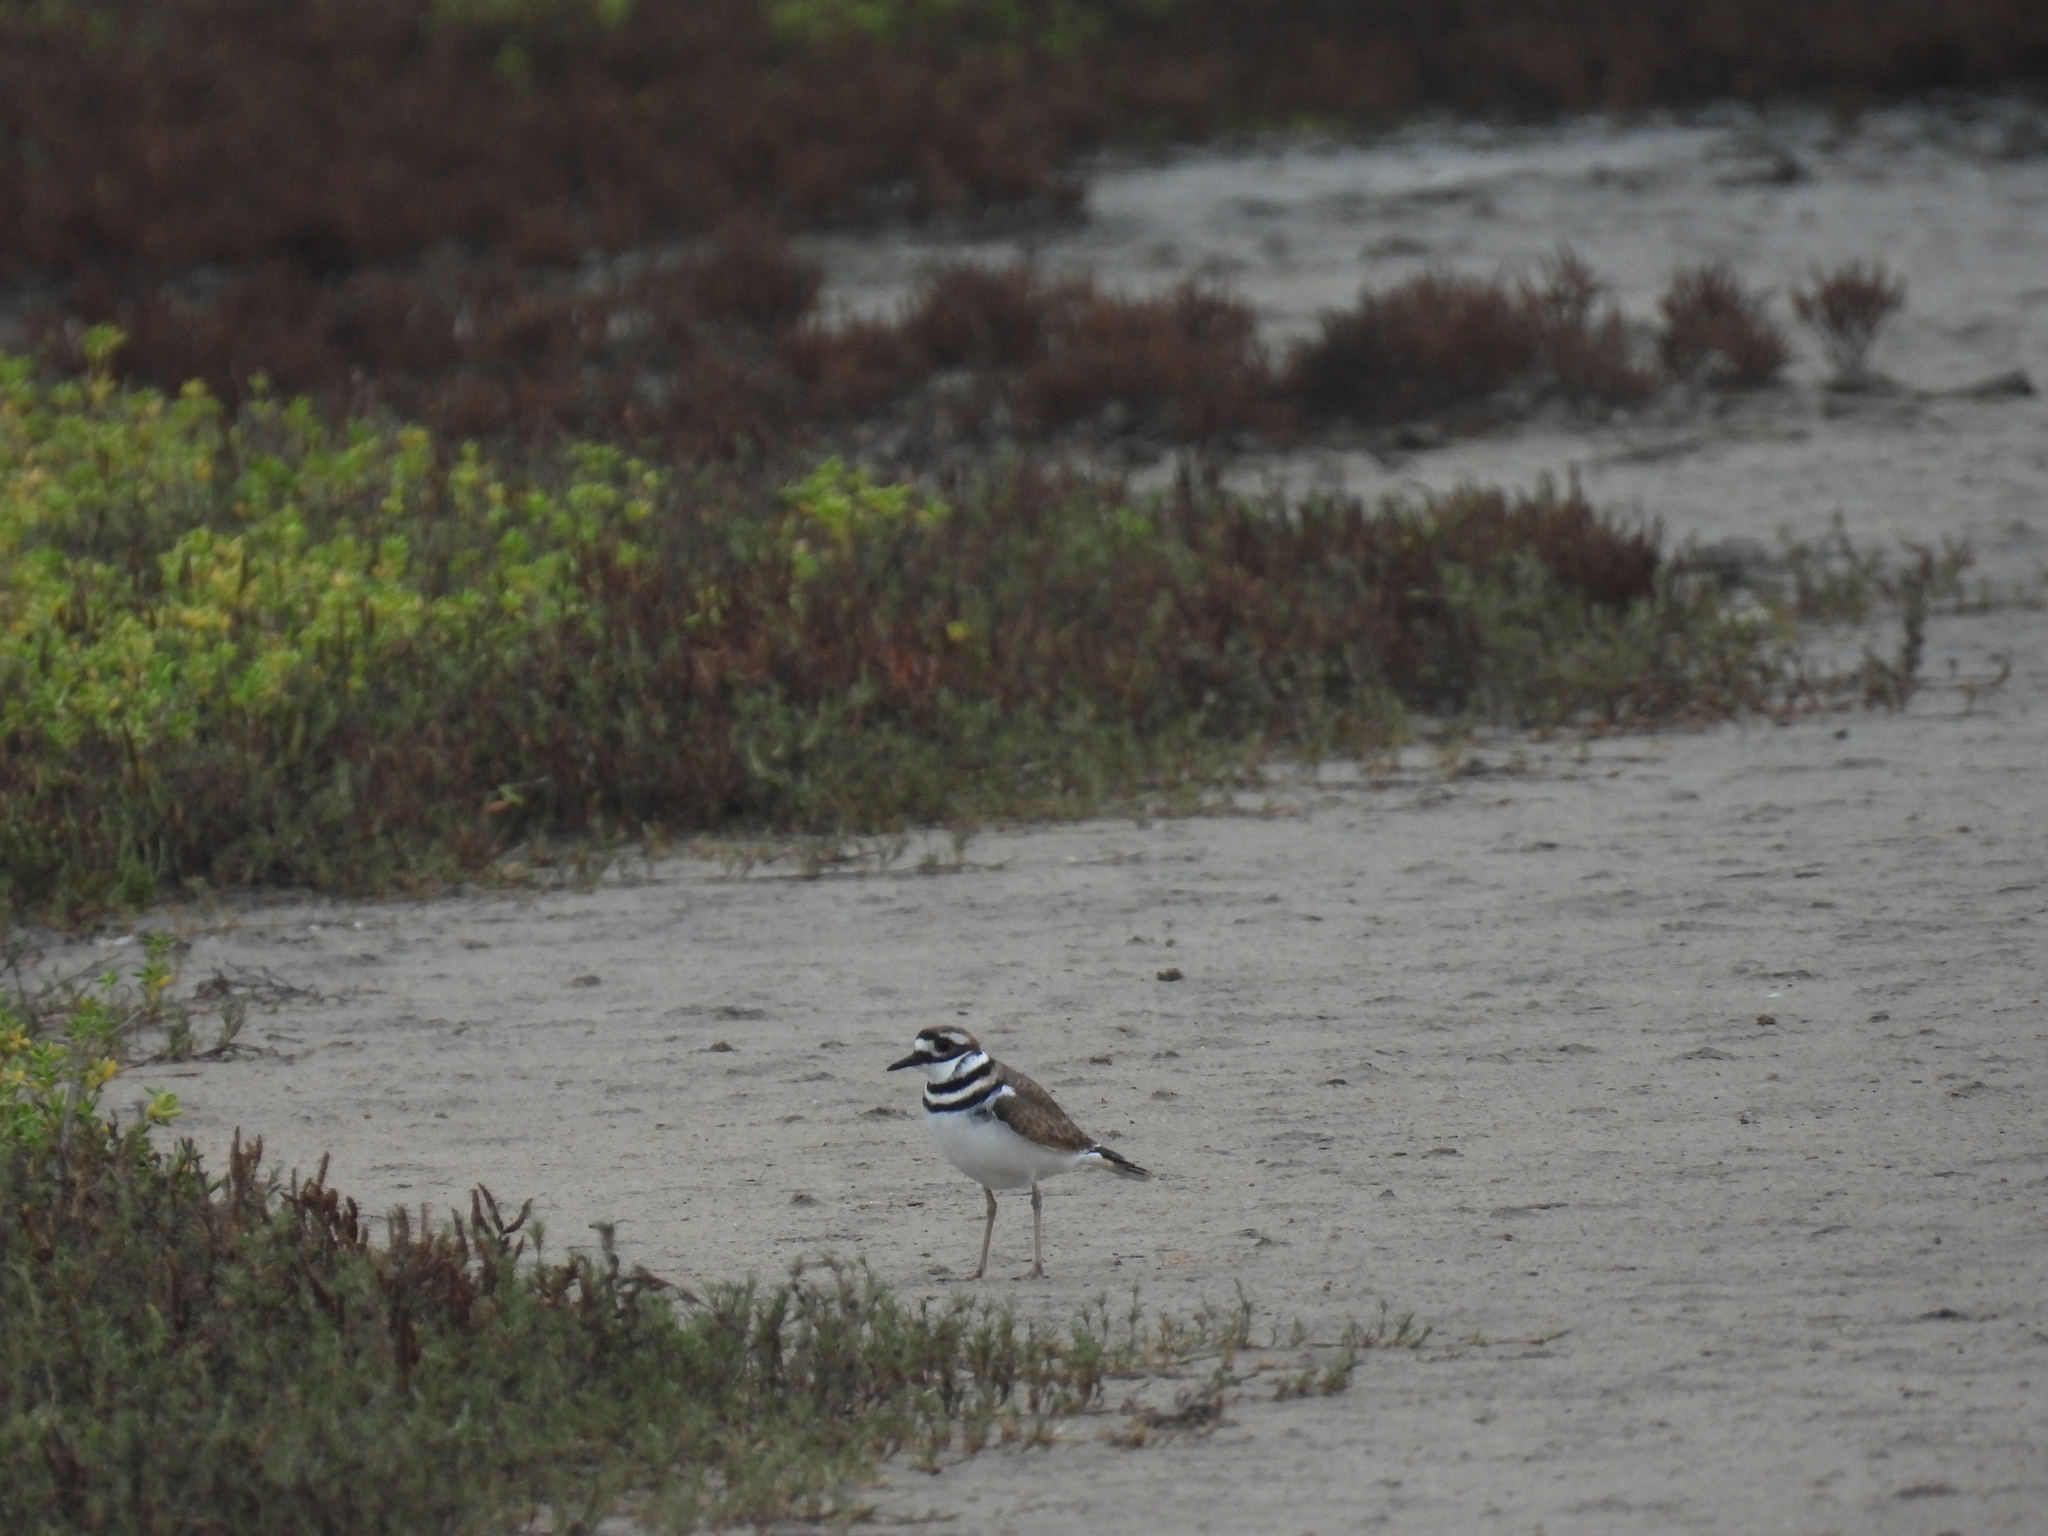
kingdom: Animalia
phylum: Chordata
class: Aves
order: Charadriiformes
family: Charadriidae
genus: Charadrius
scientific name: Charadrius vociferus
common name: Killdeer
